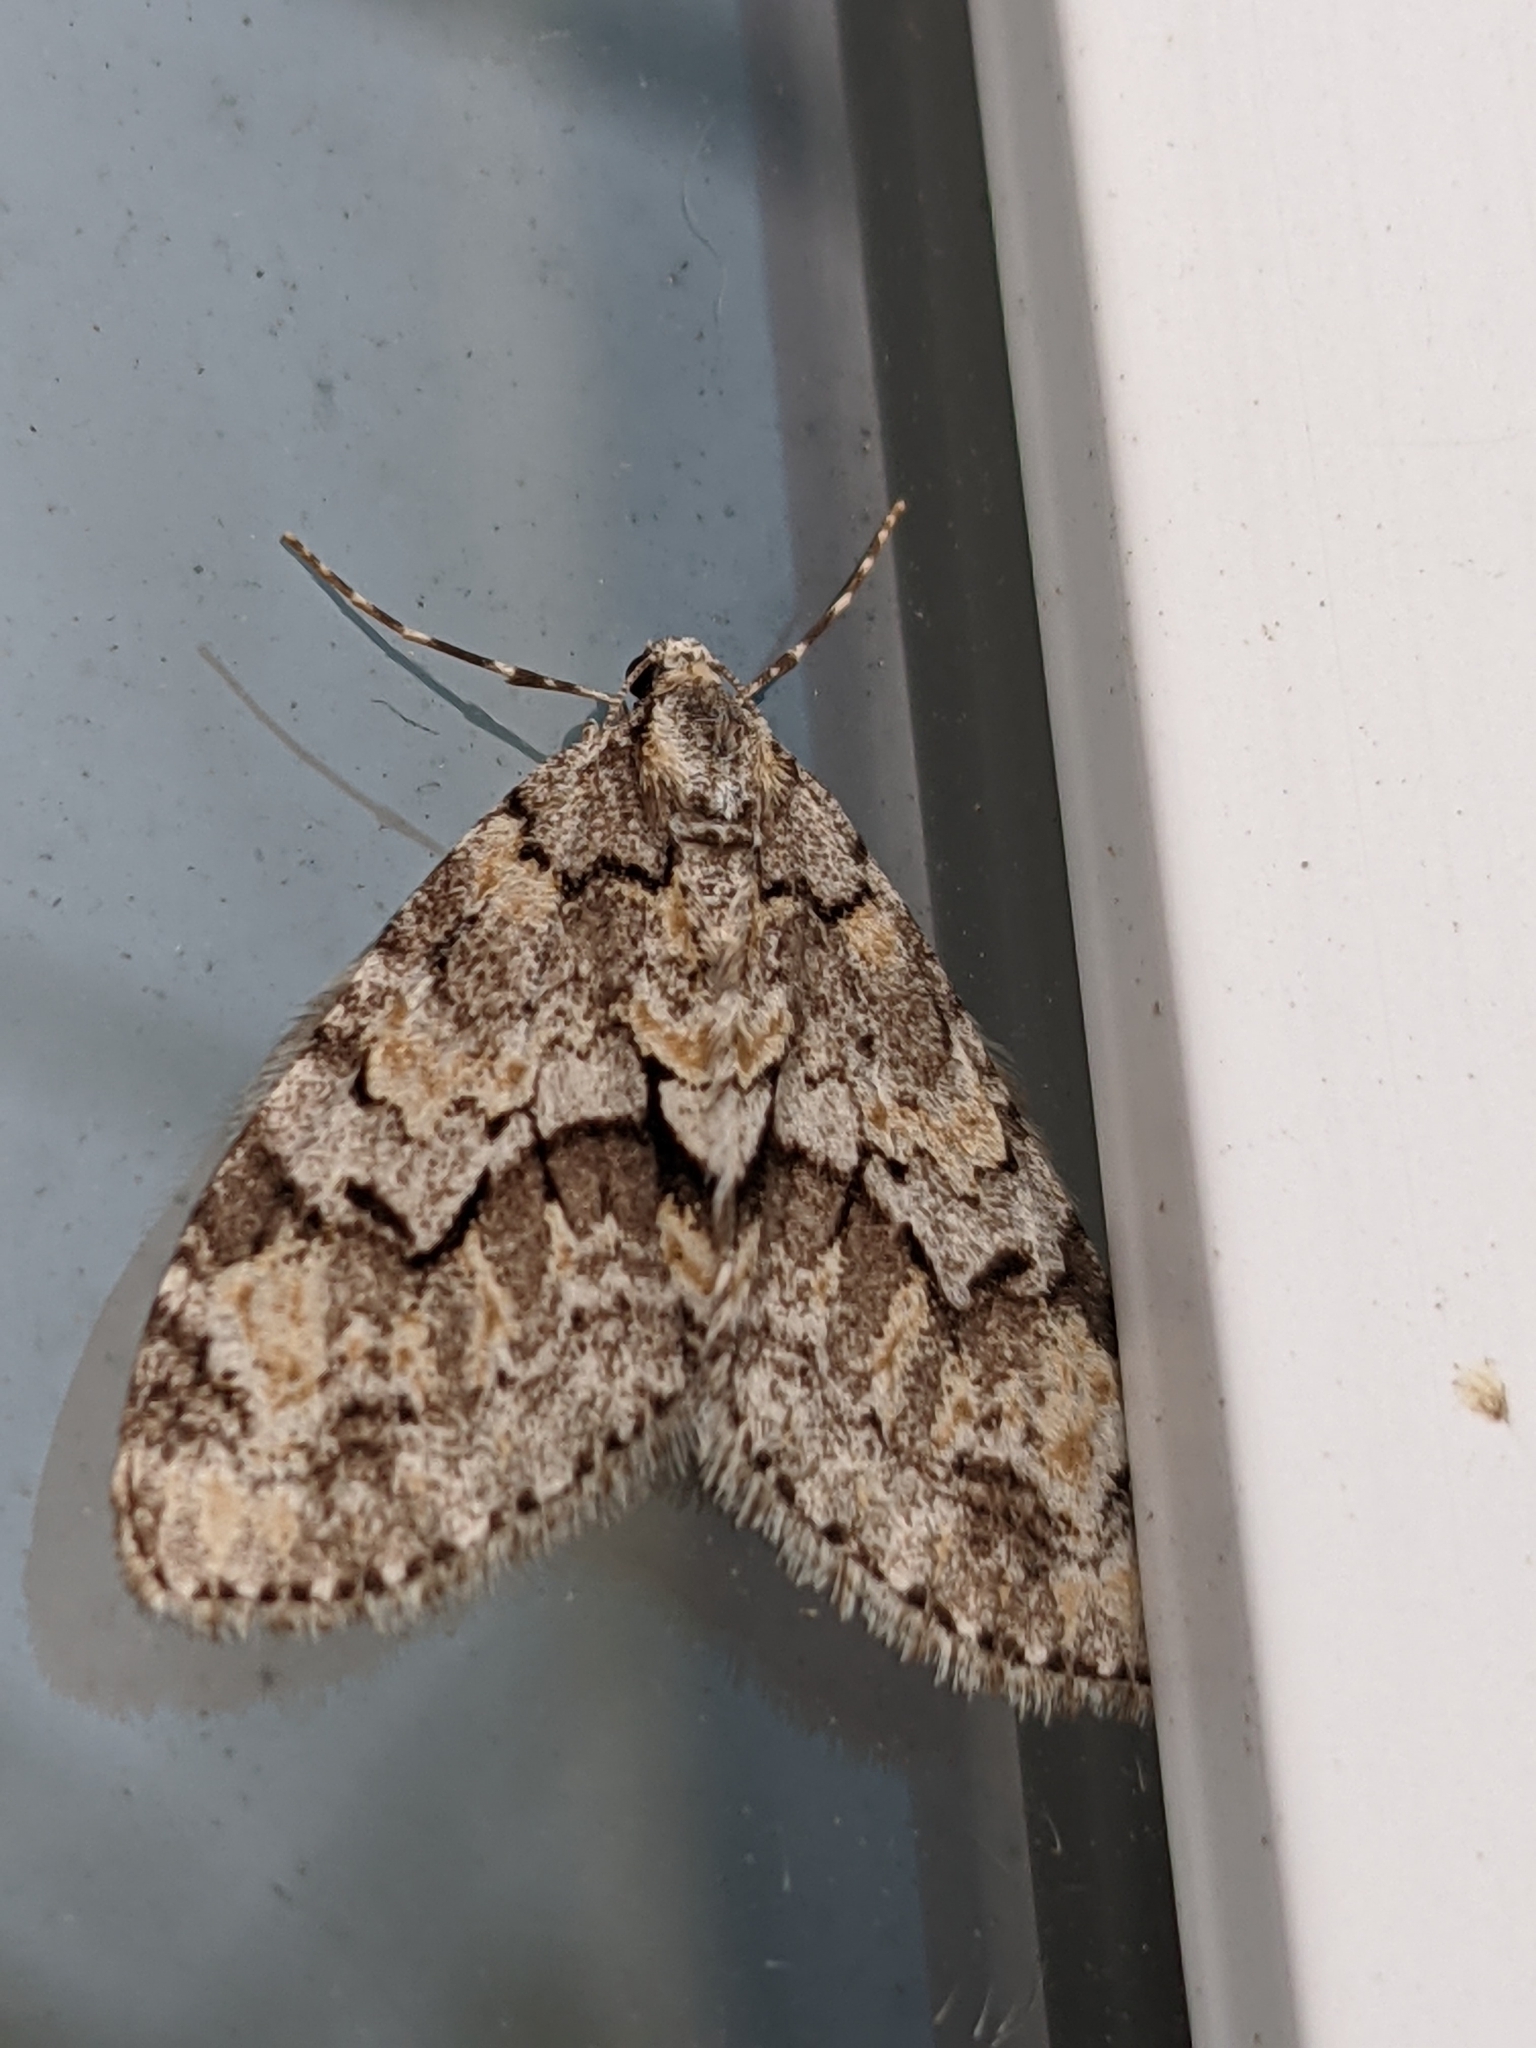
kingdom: Animalia
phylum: Arthropoda
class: Insecta
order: Lepidoptera
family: Geometridae
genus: Cladara
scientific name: Cladara limitaria
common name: Mottled gray carpet
